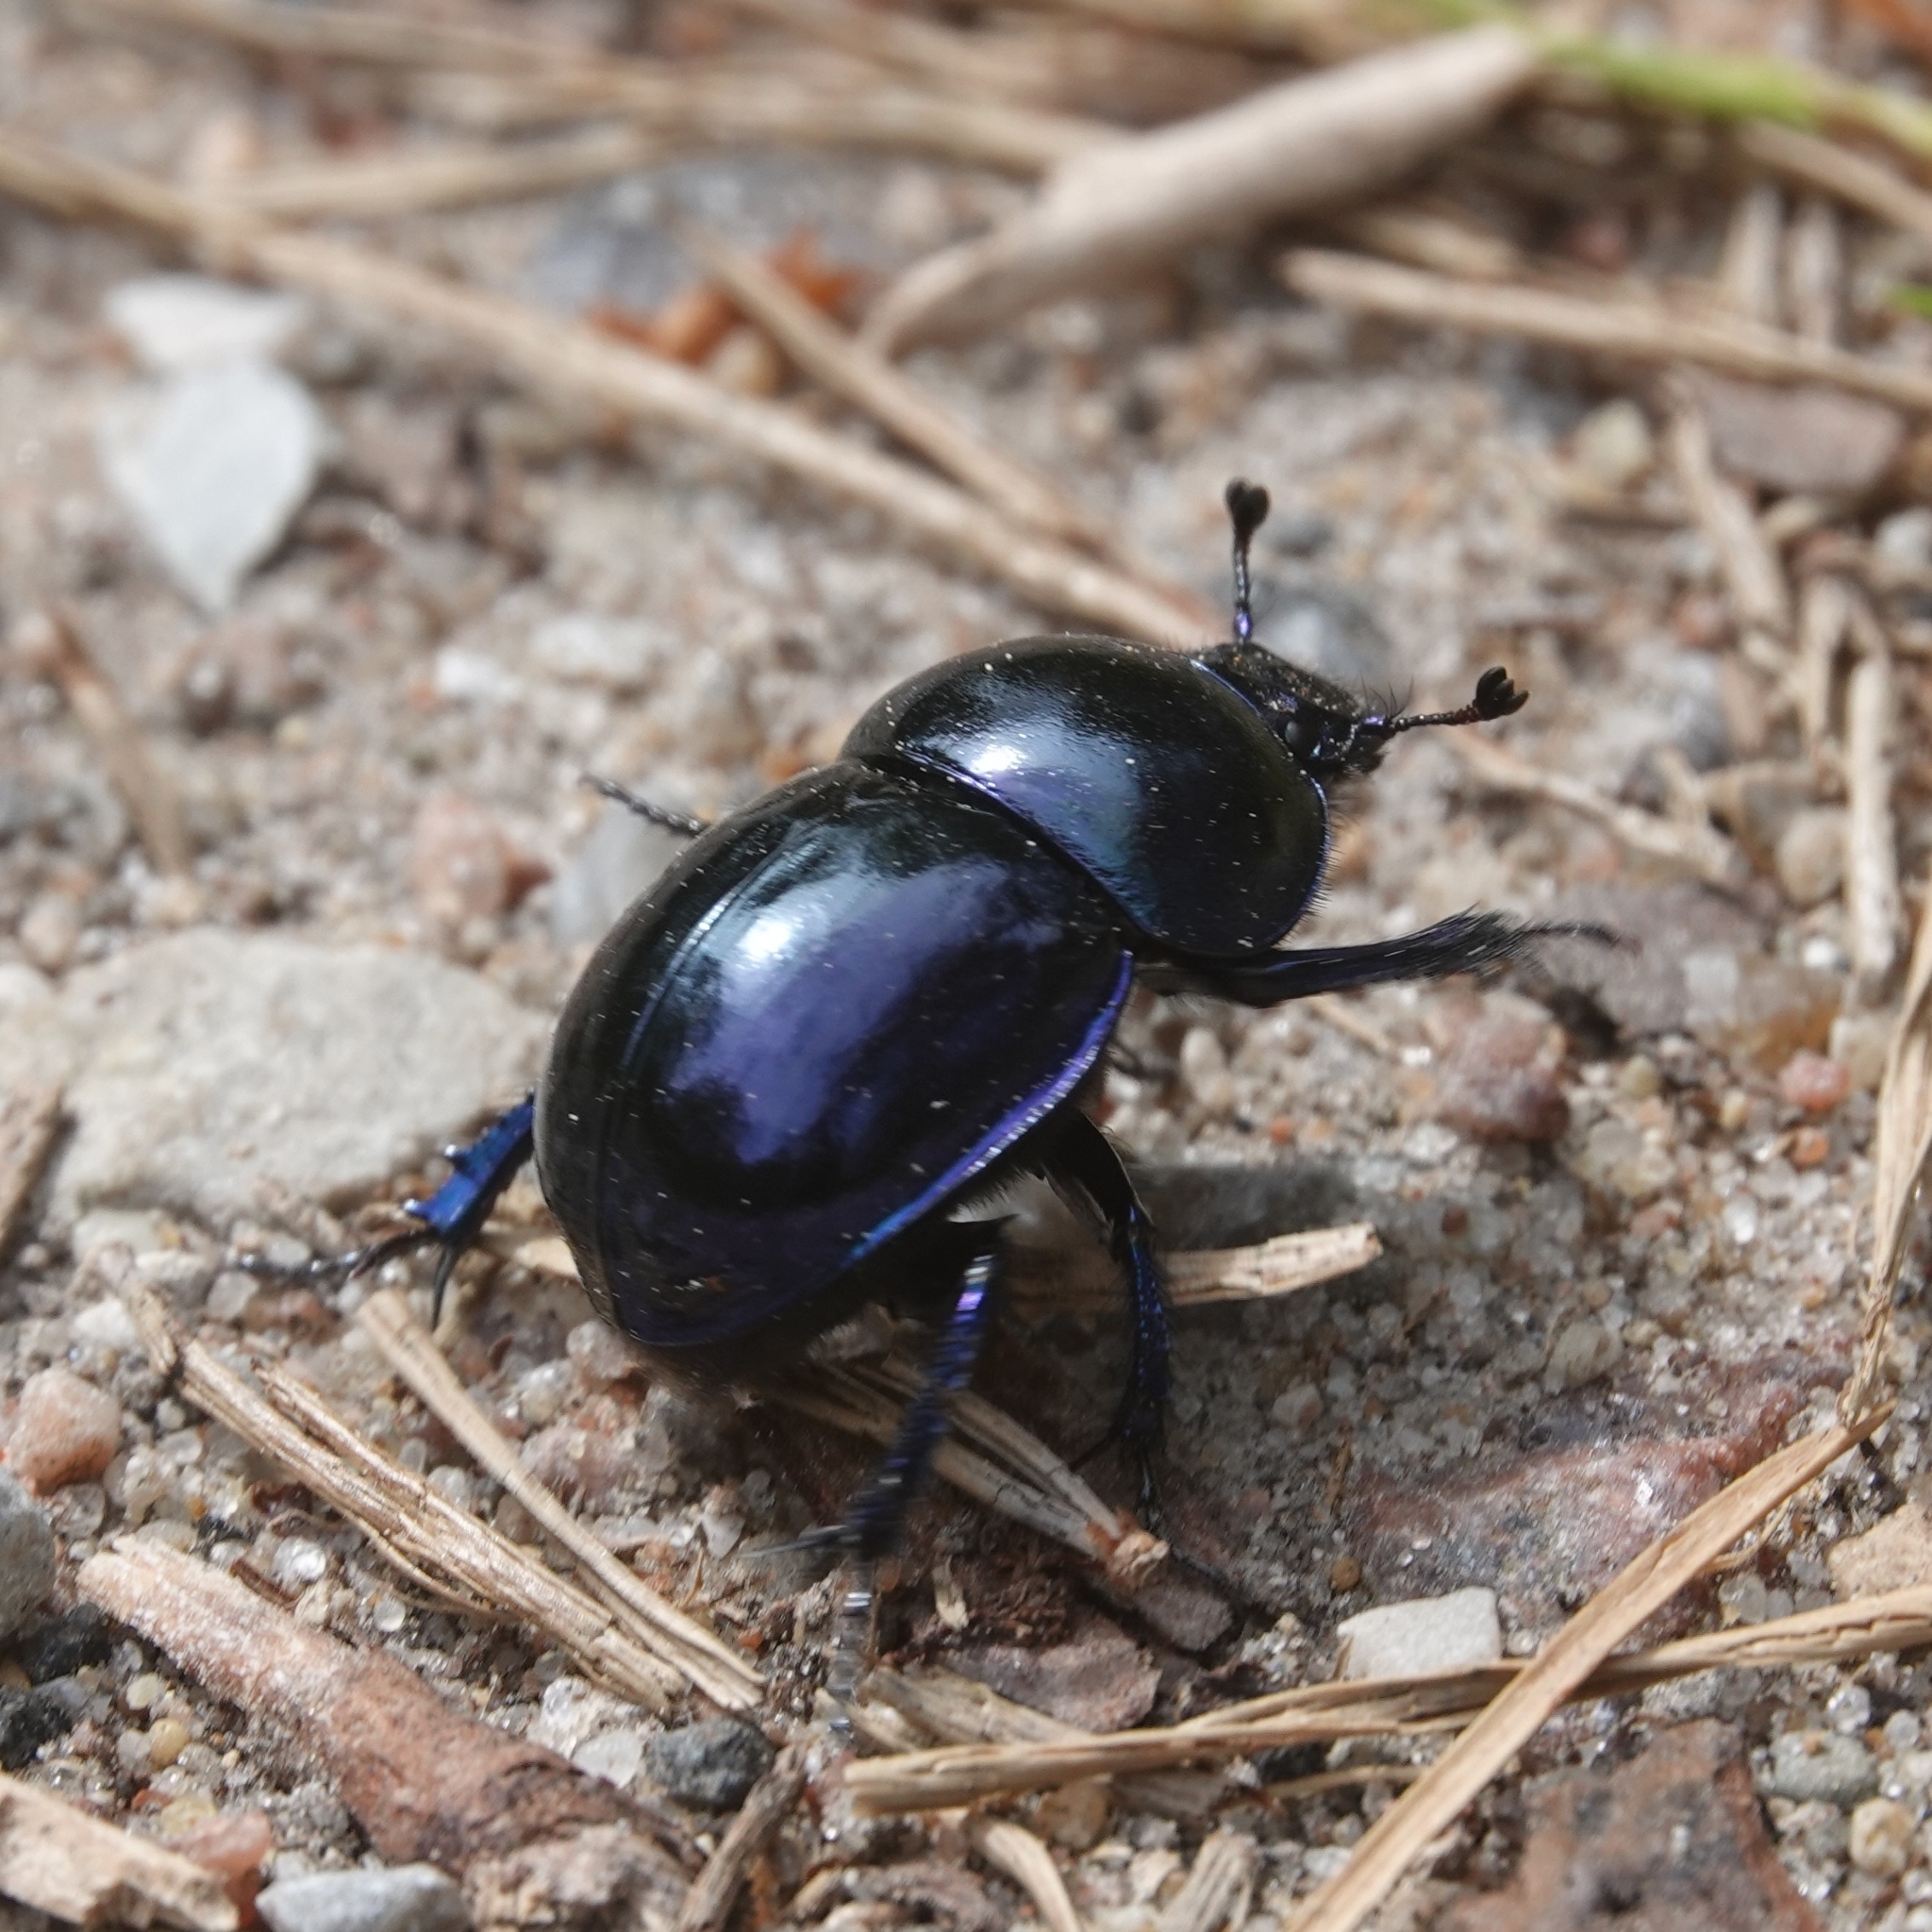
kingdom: Animalia
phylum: Arthropoda
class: Insecta
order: Coleoptera
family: Geotrupidae
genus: Trypocopris
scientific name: Trypocopris vernalis
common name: Spring dumbledor
